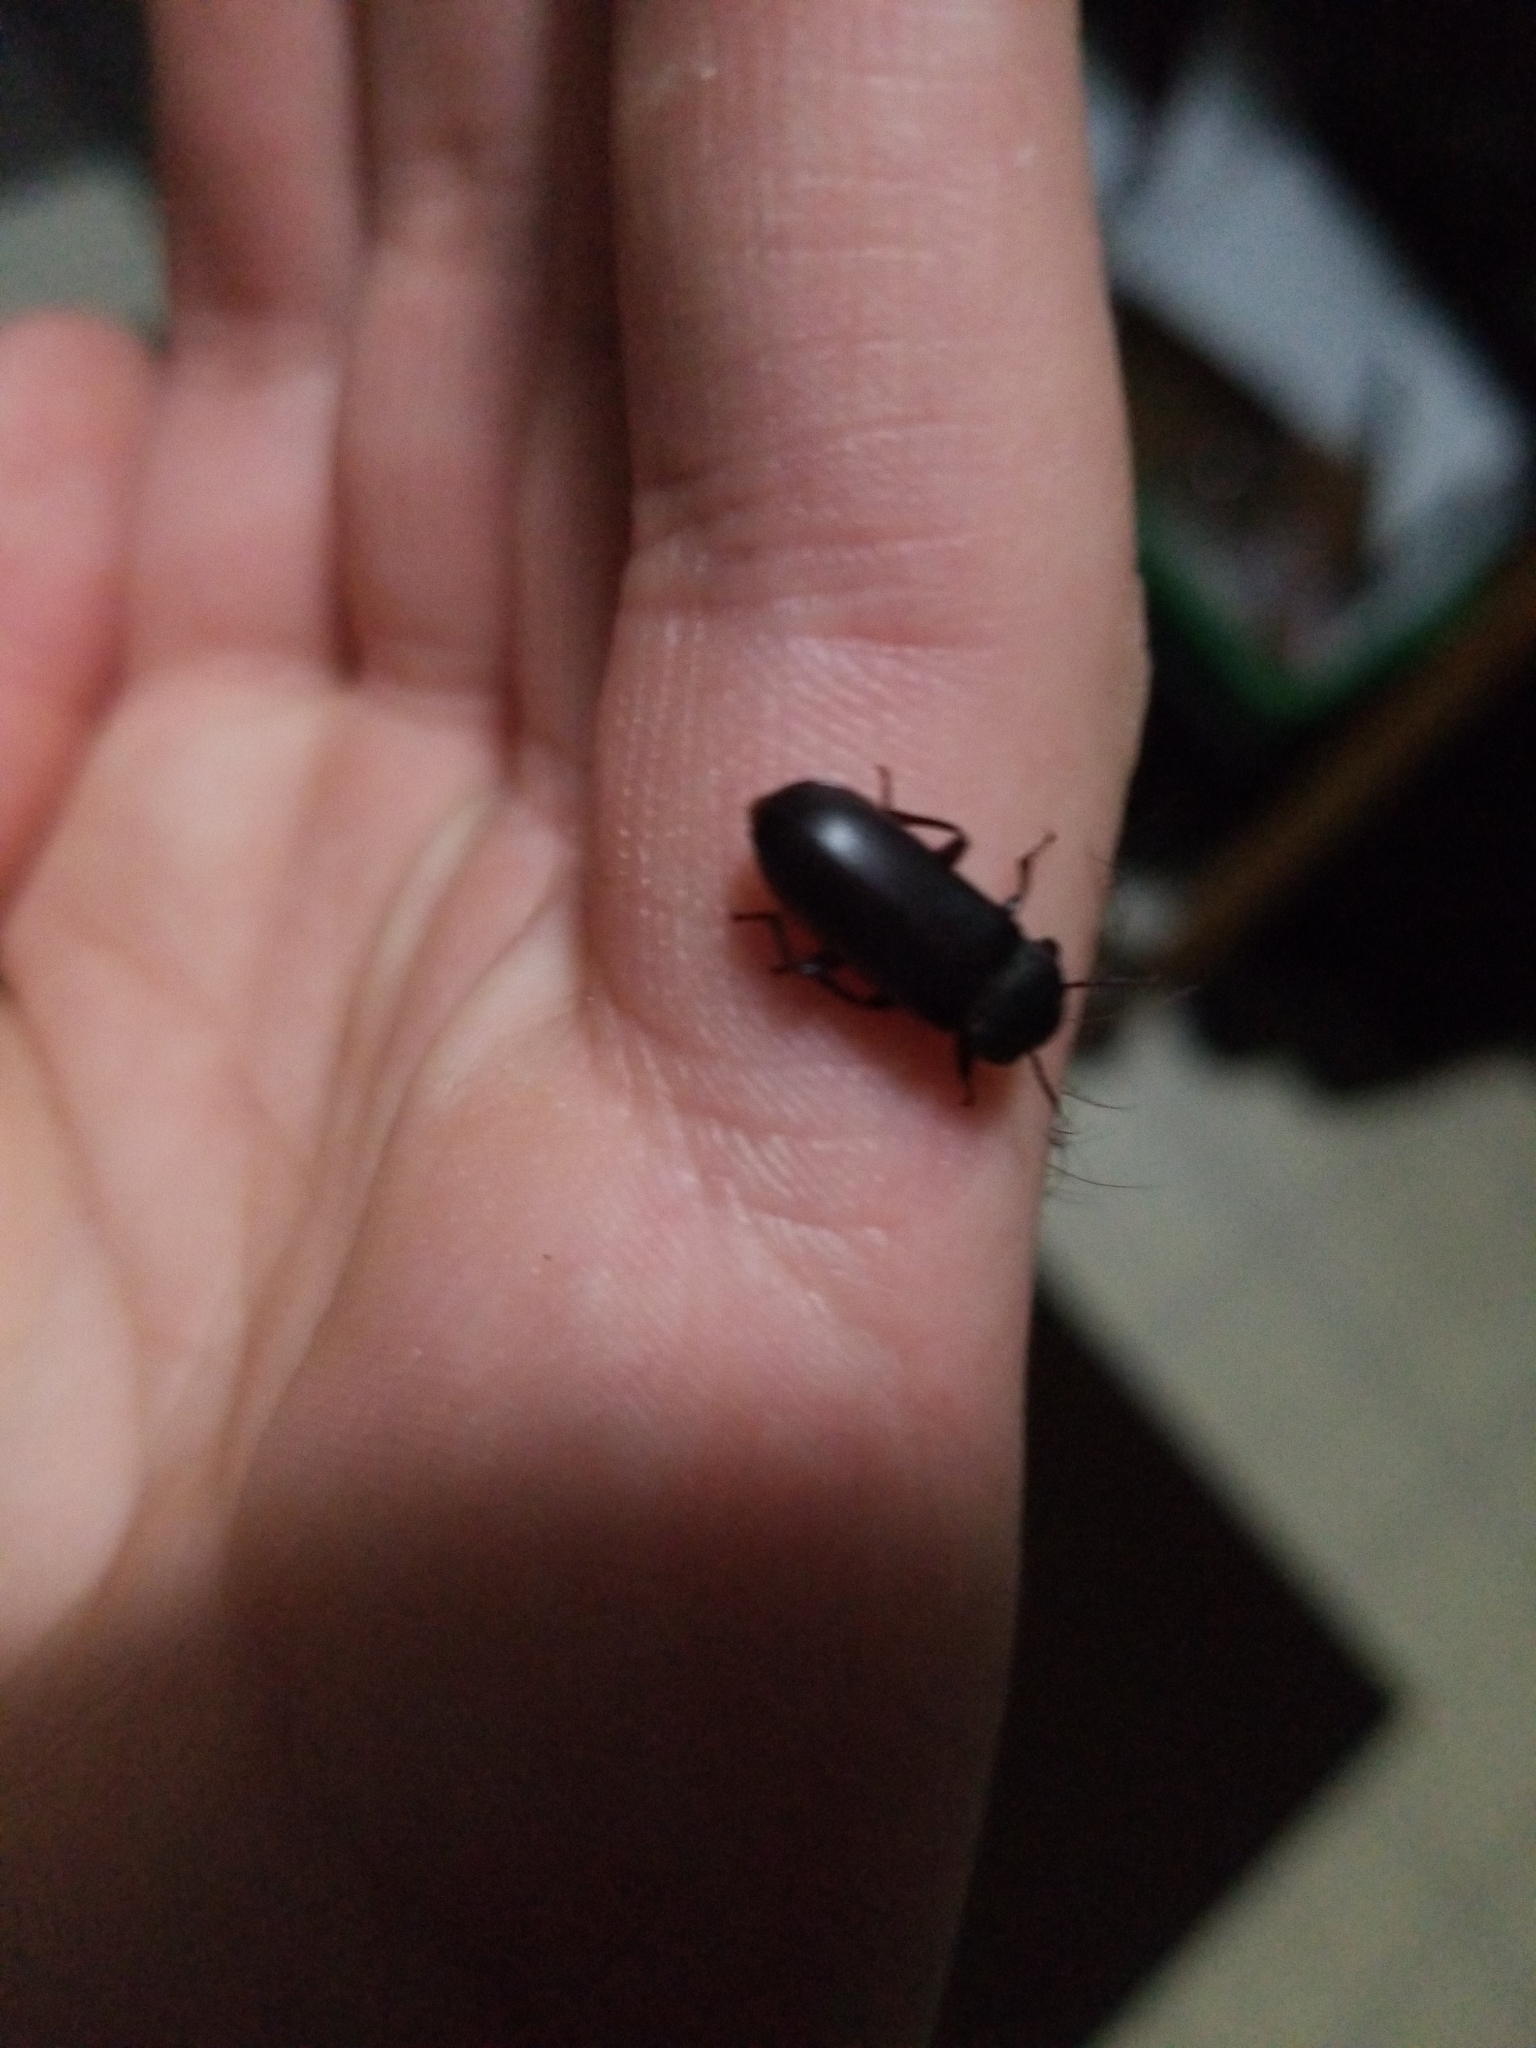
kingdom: Animalia
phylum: Arthropoda
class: Insecta
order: Coleoptera
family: Tenebrionidae
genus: Tenebrio
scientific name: Tenebrio molitor
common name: Hardback beetle
